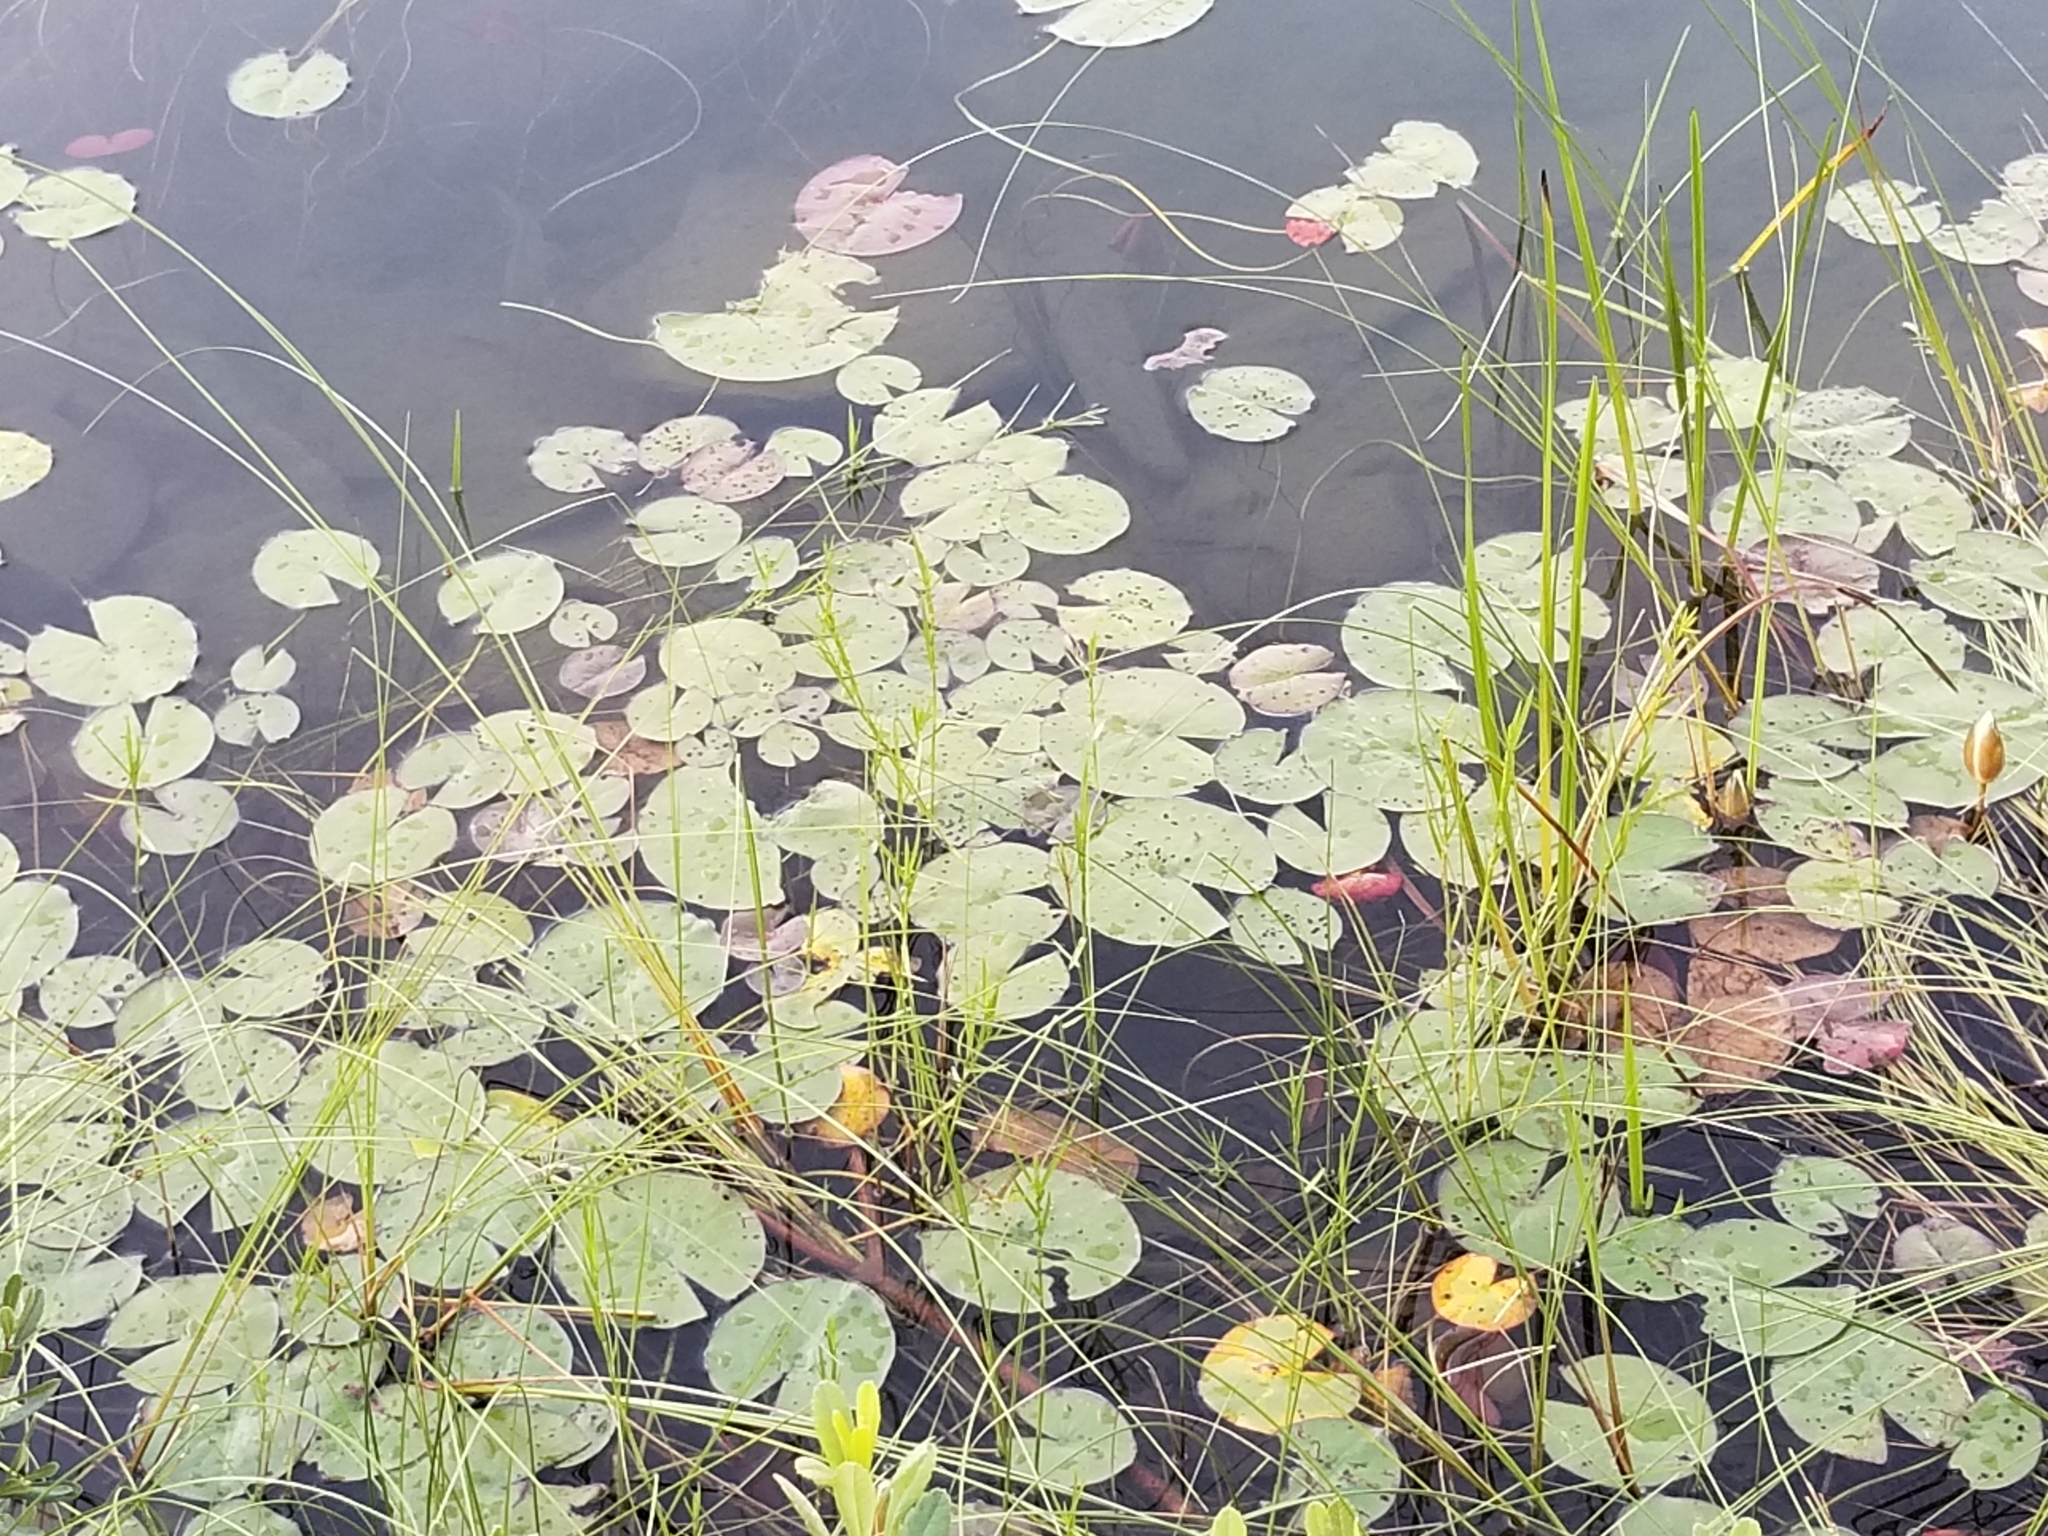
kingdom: Plantae
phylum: Tracheophyta
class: Magnoliopsida
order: Nymphaeales
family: Nymphaeaceae
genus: Nymphaea
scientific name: Nymphaea odorata
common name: Fragrant water-lily
